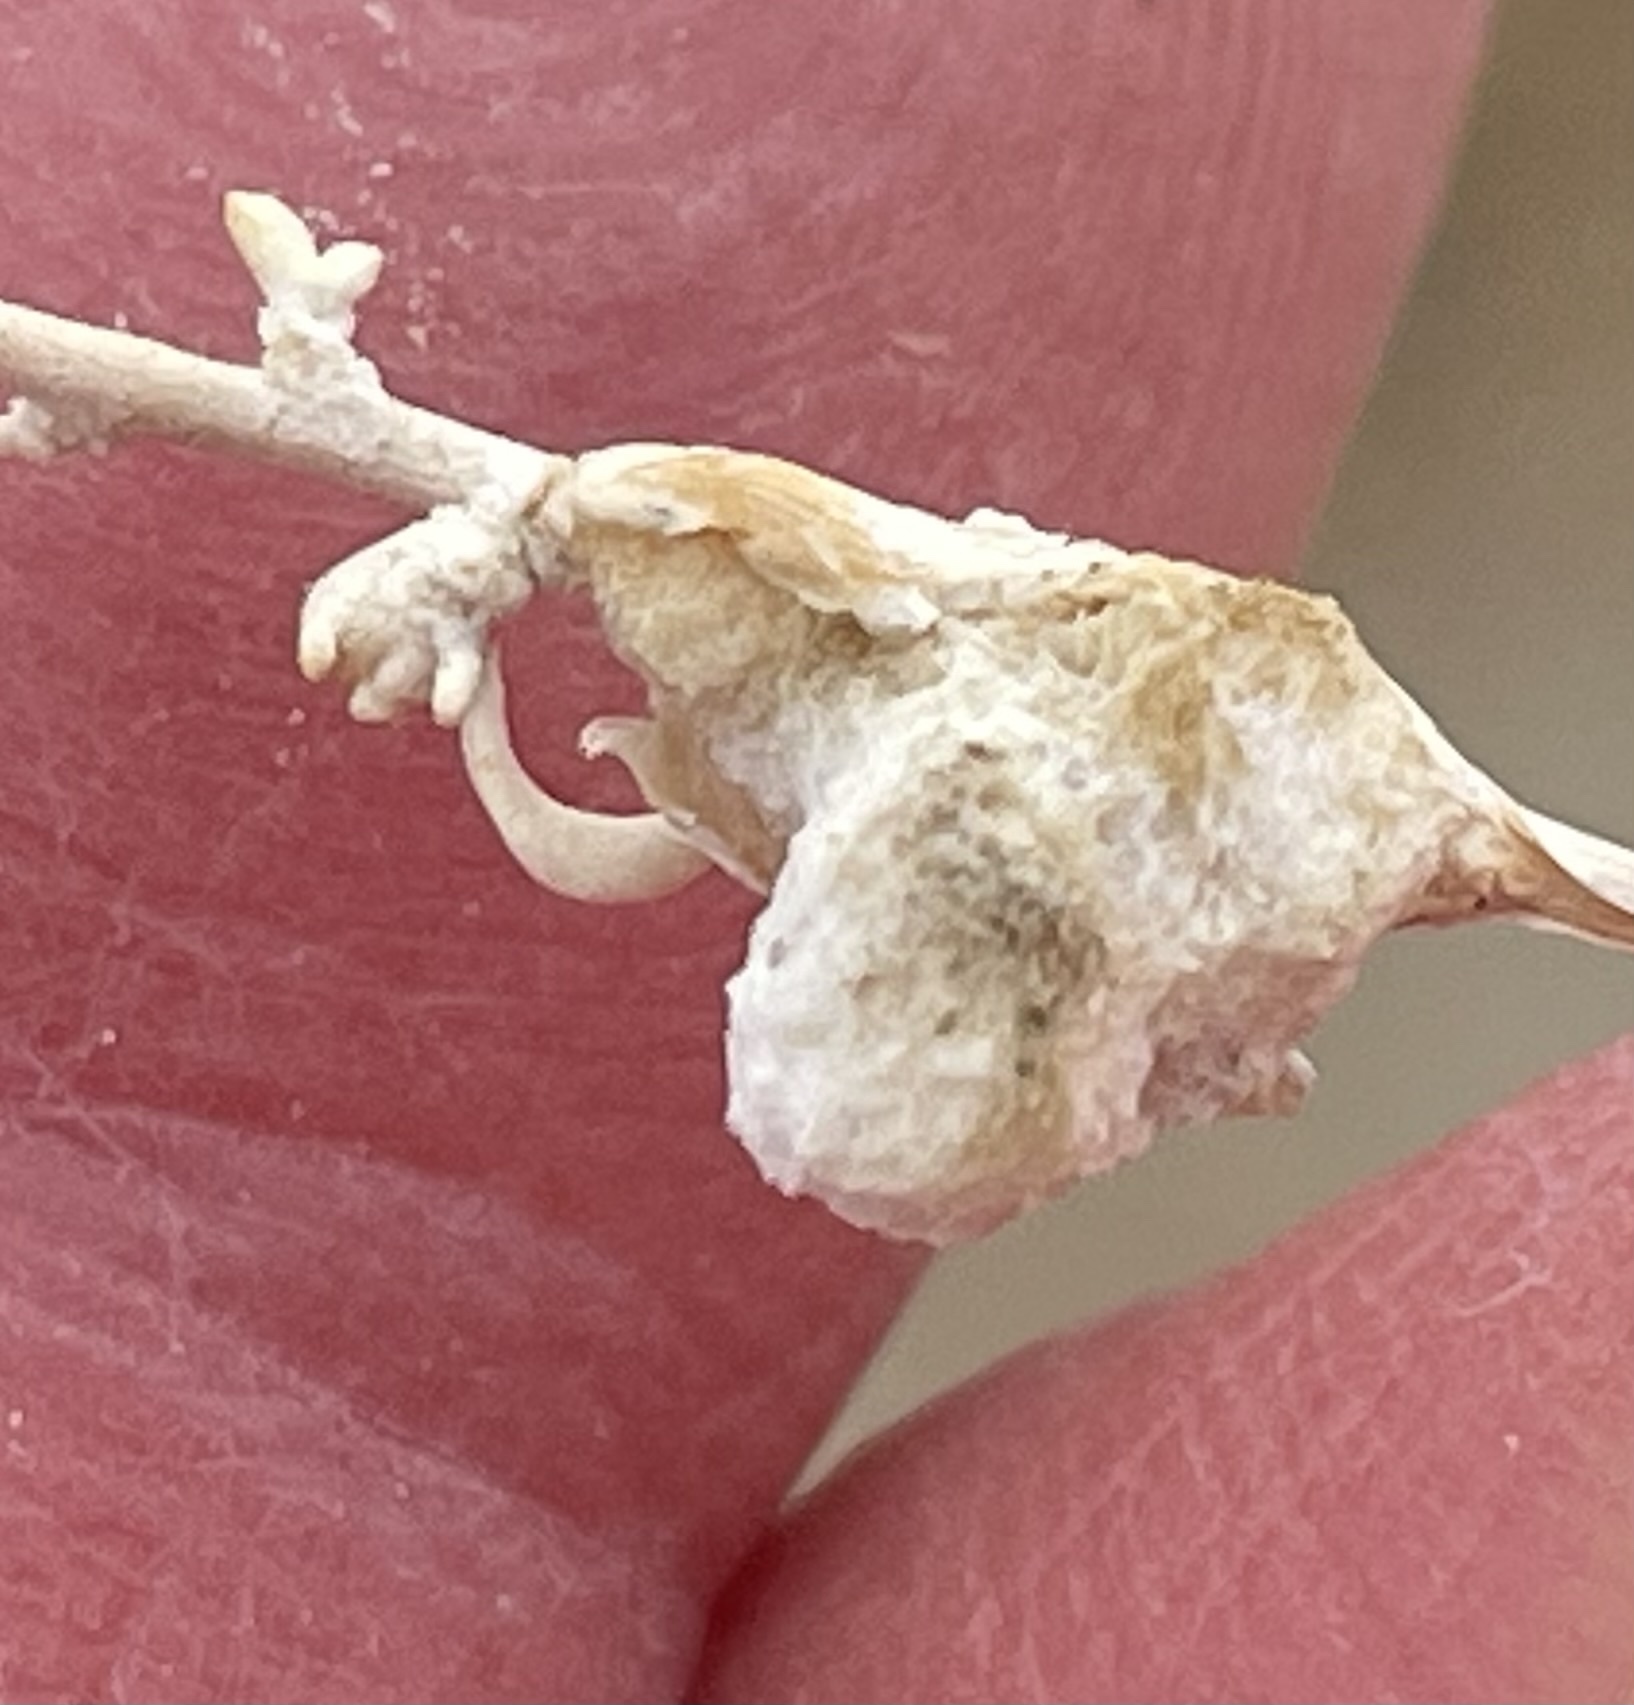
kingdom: Animalia
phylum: Arthropoda
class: Insecta
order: Diptera
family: Cecidomyiidae
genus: Asphondylia
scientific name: Asphondylia floccosa
